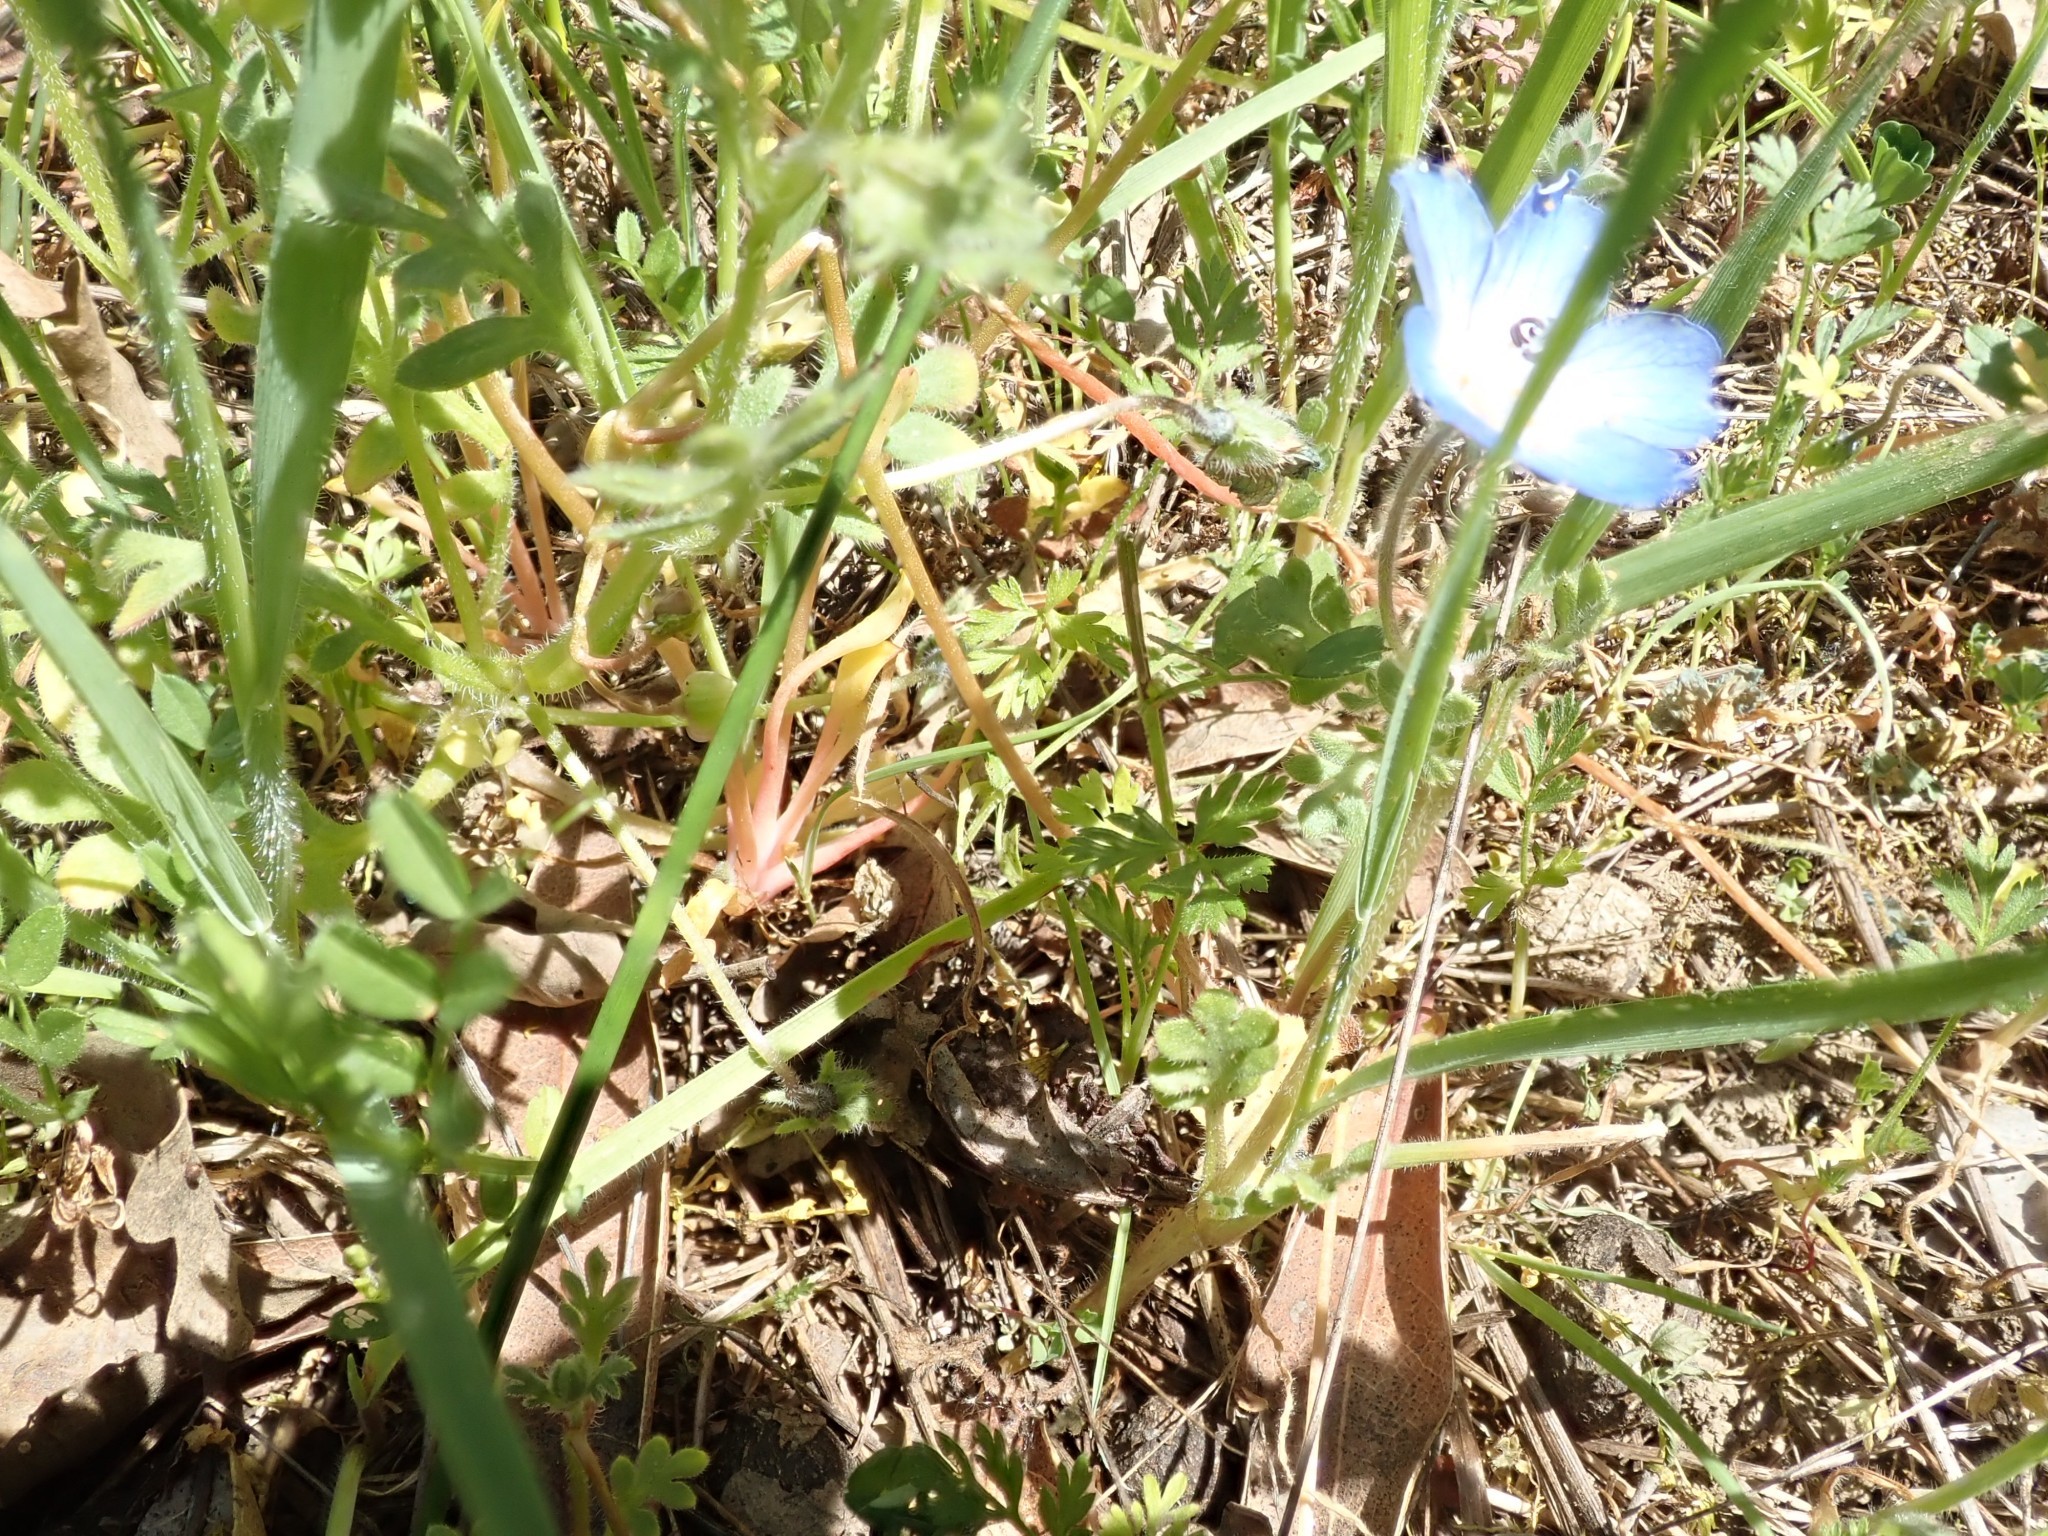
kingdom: Plantae
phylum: Tracheophyta
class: Magnoliopsida
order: Boraginales
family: Hydrophyllaceae
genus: Nemophila
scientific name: Nemophila menziesii
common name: Baby's-blue-eyes
